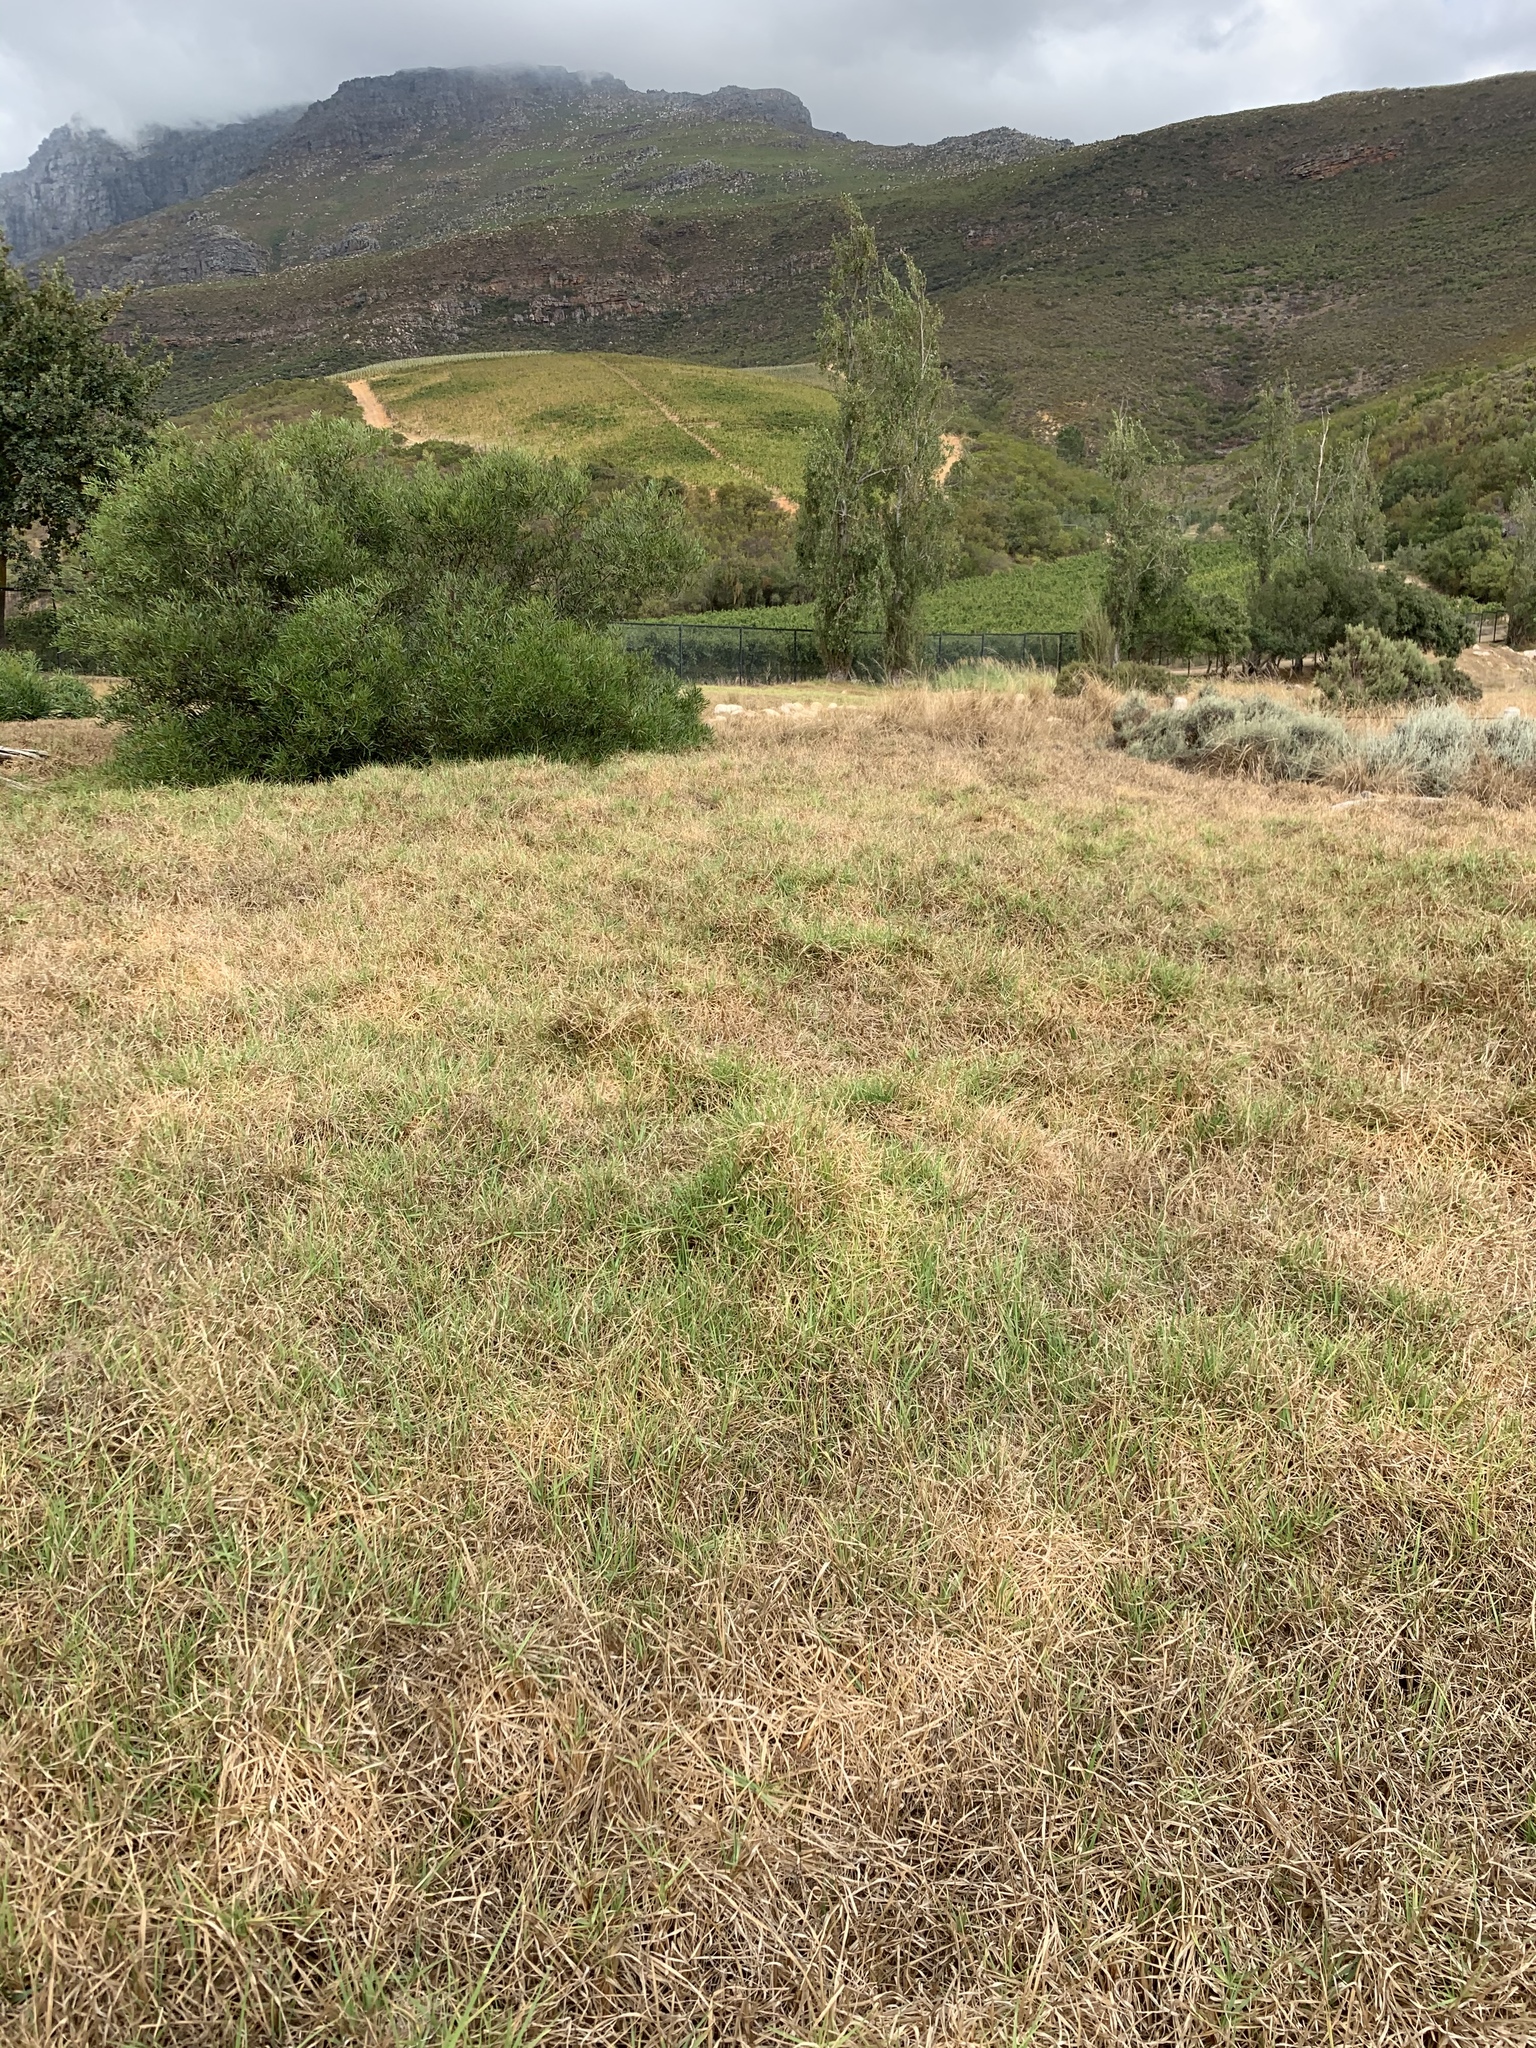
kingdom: Plantae
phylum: Tracheophyta
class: Liliopsida
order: Poales
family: Poaceae
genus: Cenchrus
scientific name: Cenchrus clandestinus
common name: Kikuyugrass
